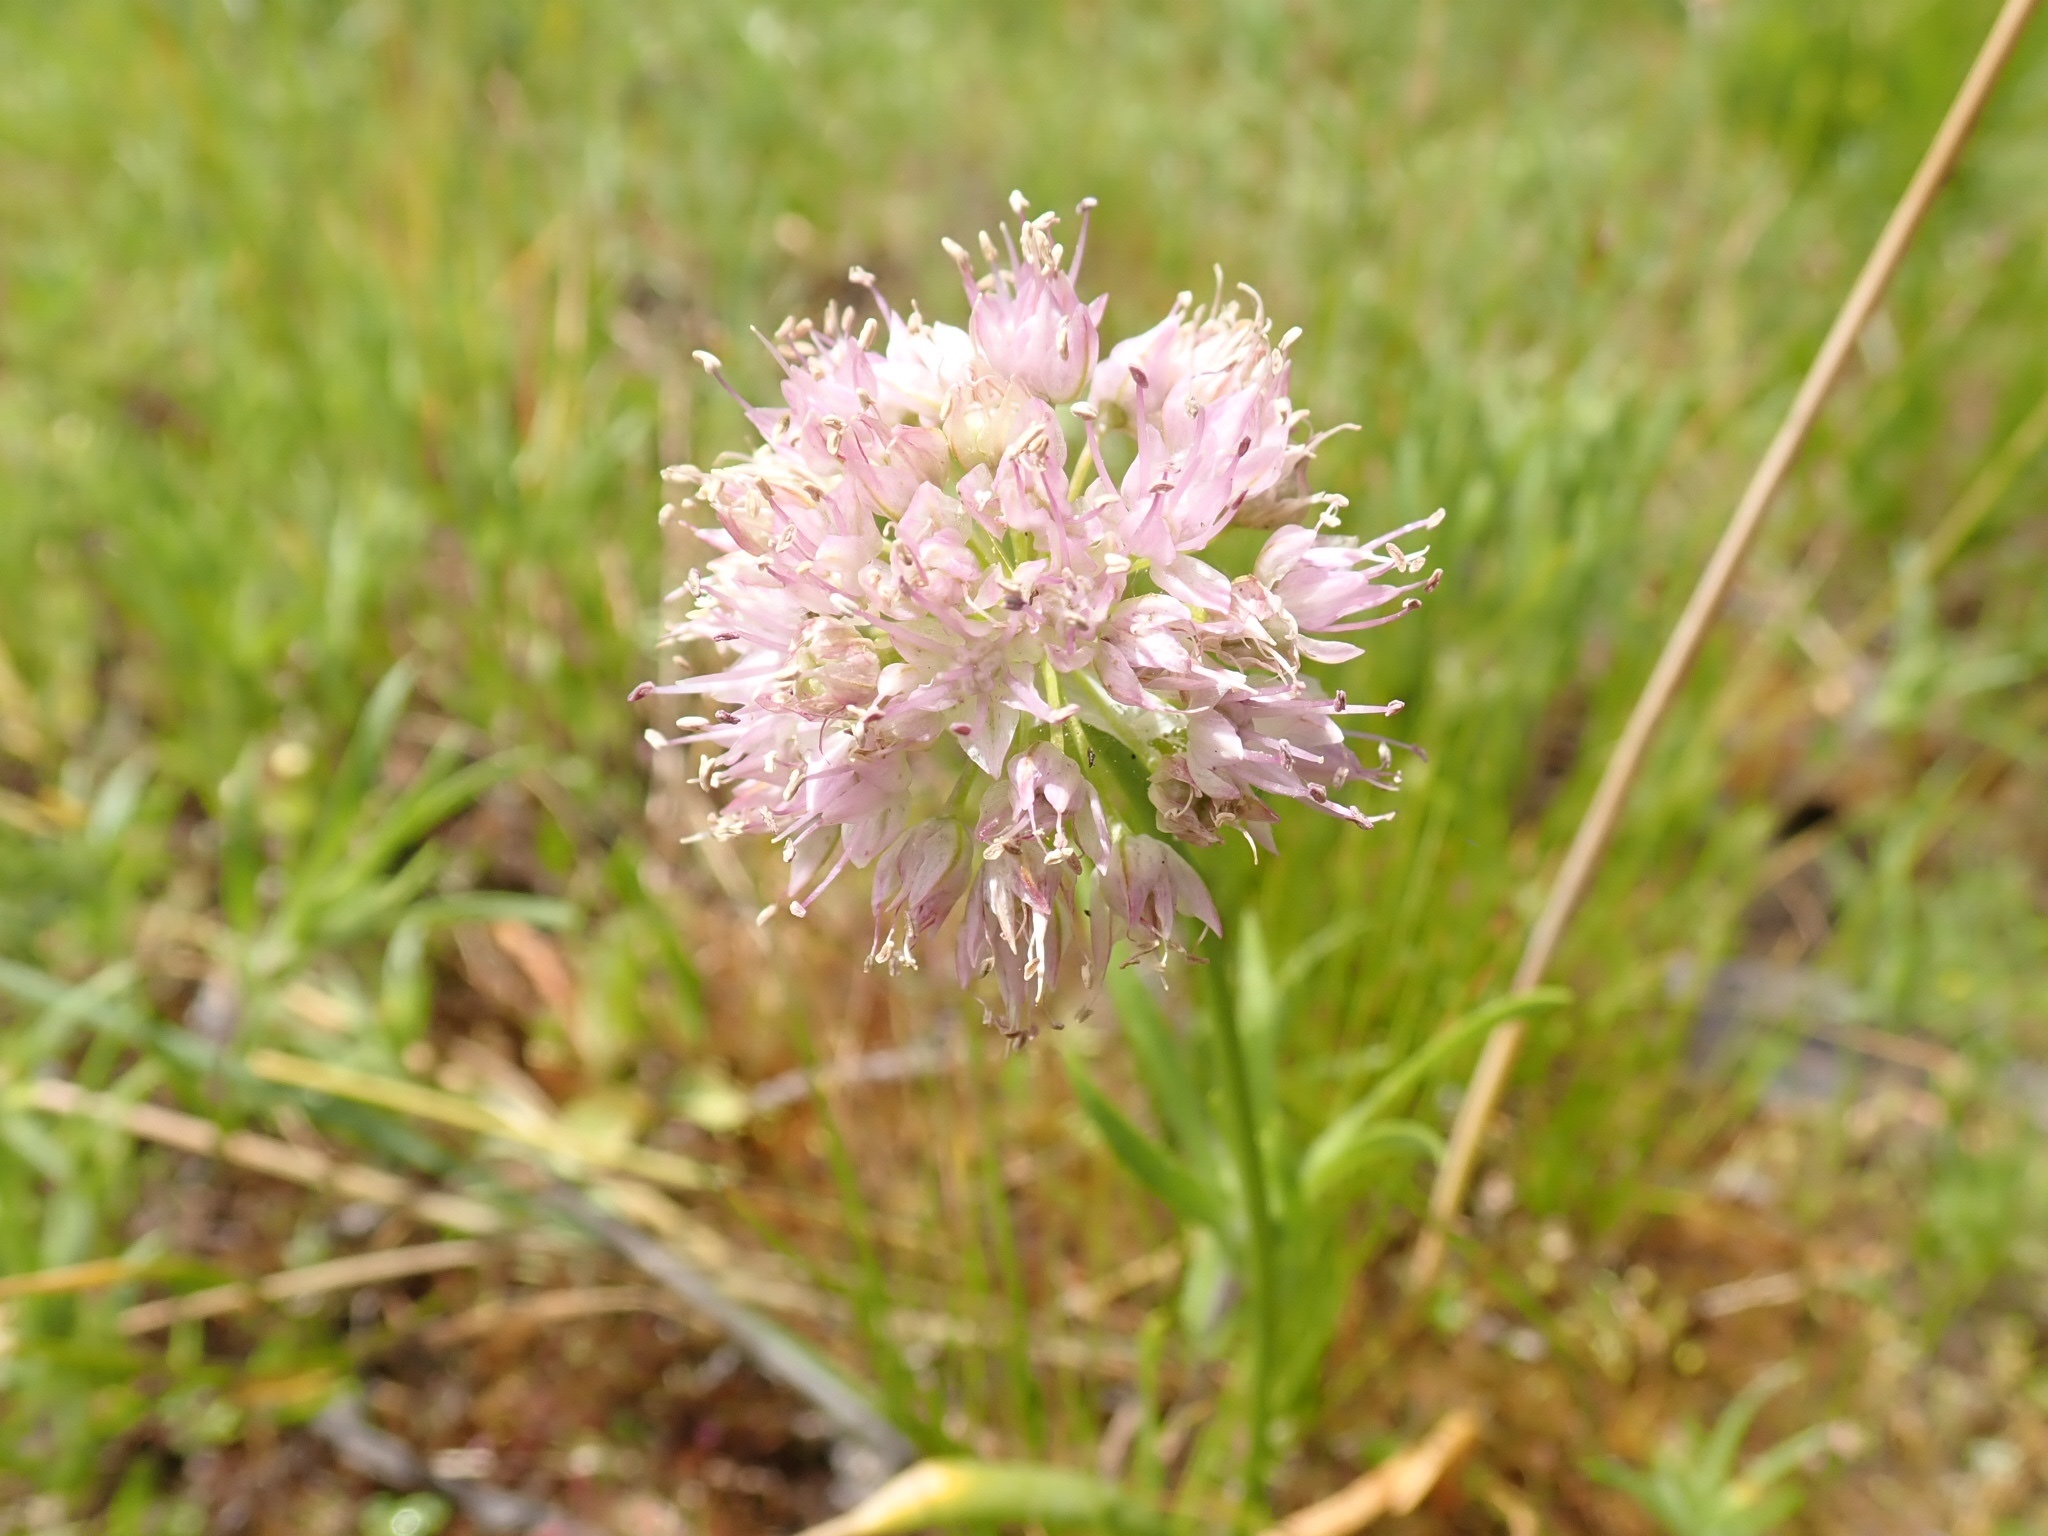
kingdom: Plantae
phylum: Tracheophyta
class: Liliopsida
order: Asparagales
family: Amaryllidaceae
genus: Allium
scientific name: Allium nevii
